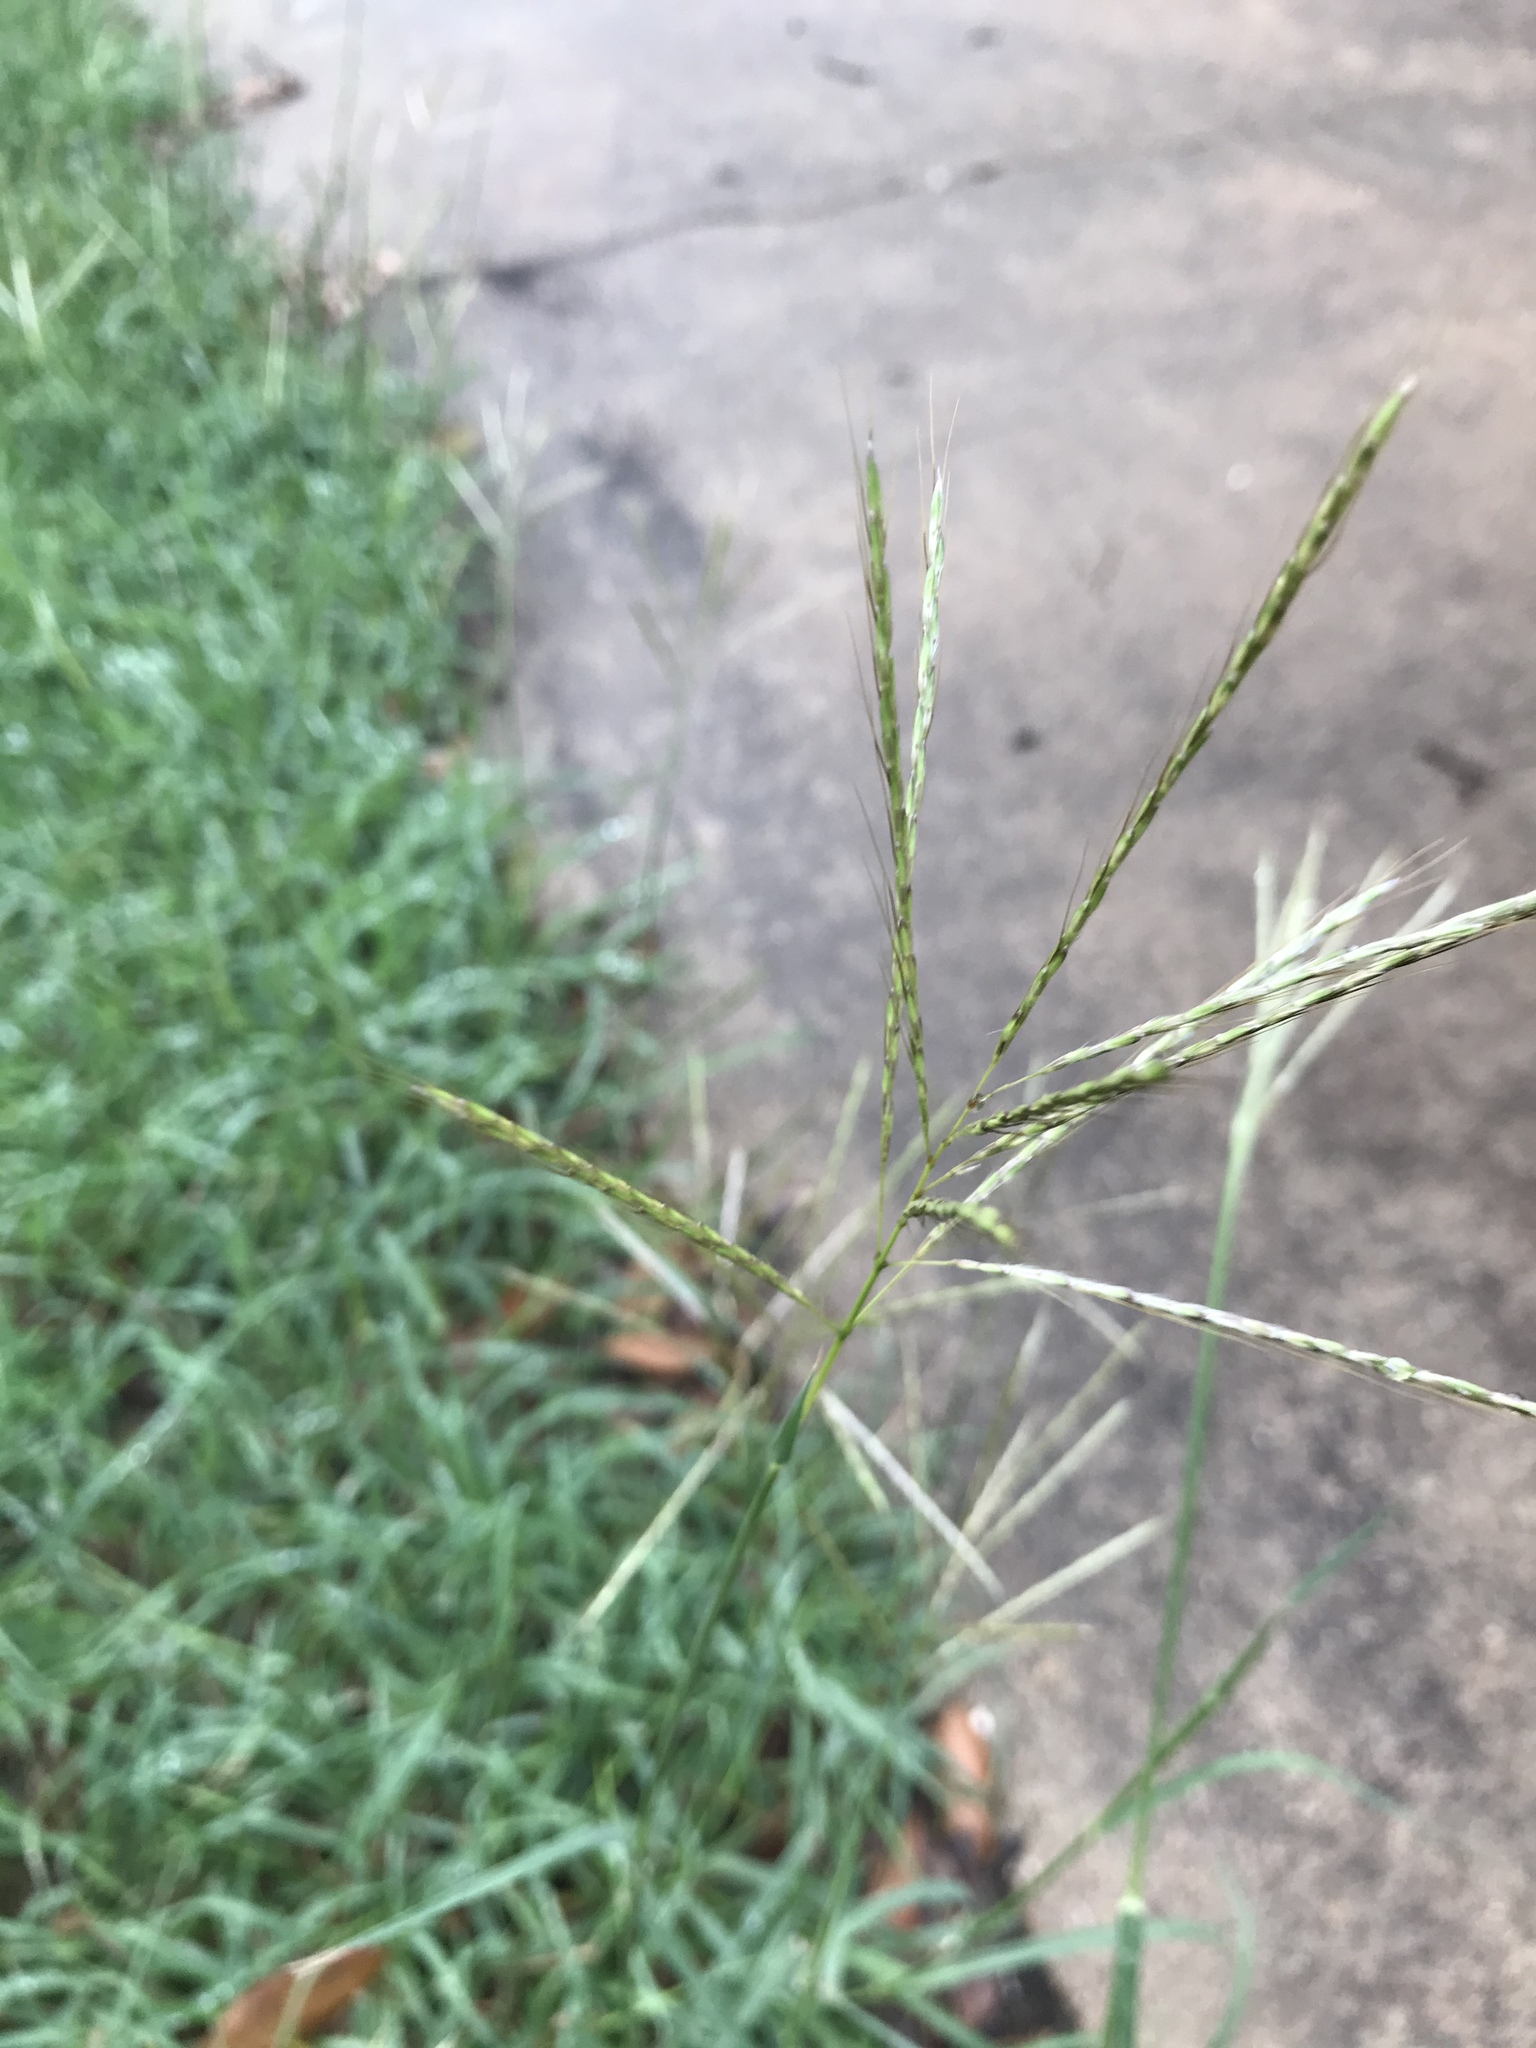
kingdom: Plantae
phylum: Tracheophyta
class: Liliopsida
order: Poales
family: Poaceae
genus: Bothriochloa
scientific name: Bothriochloa ischaemum
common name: Yellow bluestem
